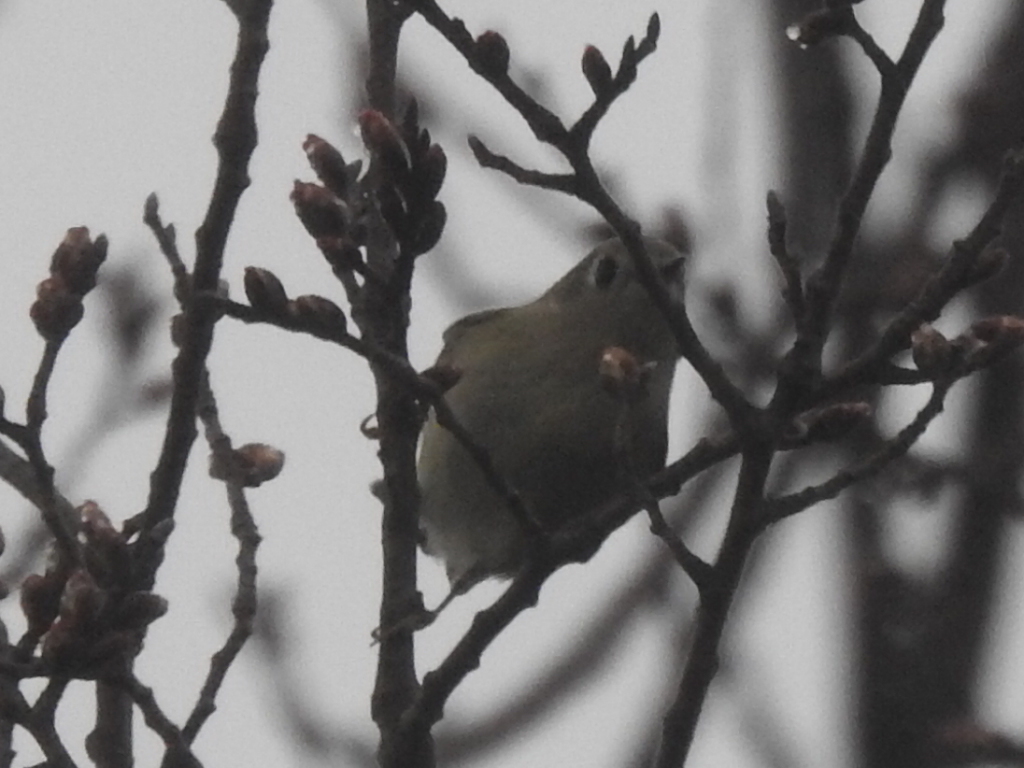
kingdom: Animalia
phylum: Chordata
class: Aves
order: Passeriformes
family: Regulidae
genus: Regulus
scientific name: Regulus calendula
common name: Ruby-crowned kinglet
